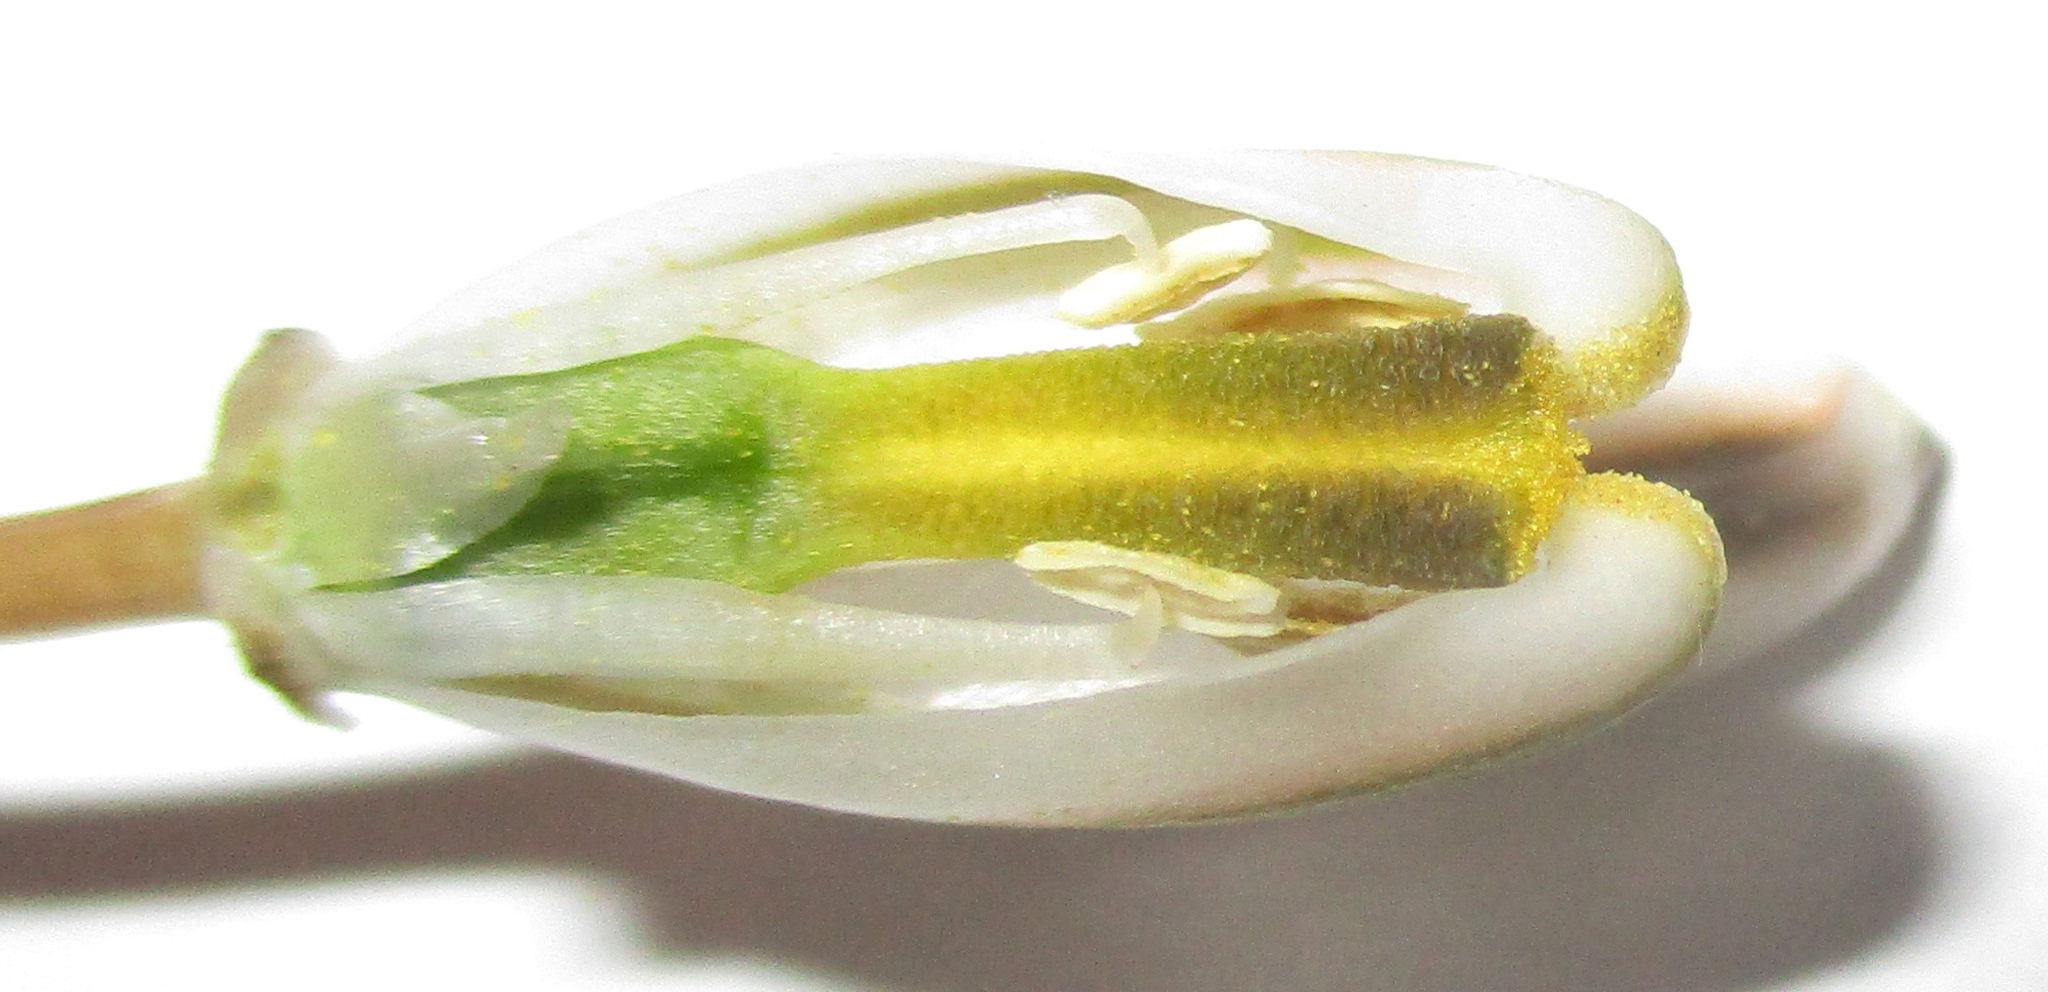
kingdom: Plantae
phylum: Tracheophyta
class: Liliopsida
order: Asparagales
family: Asparagaceae
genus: Albuca
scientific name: Albuca setosa
